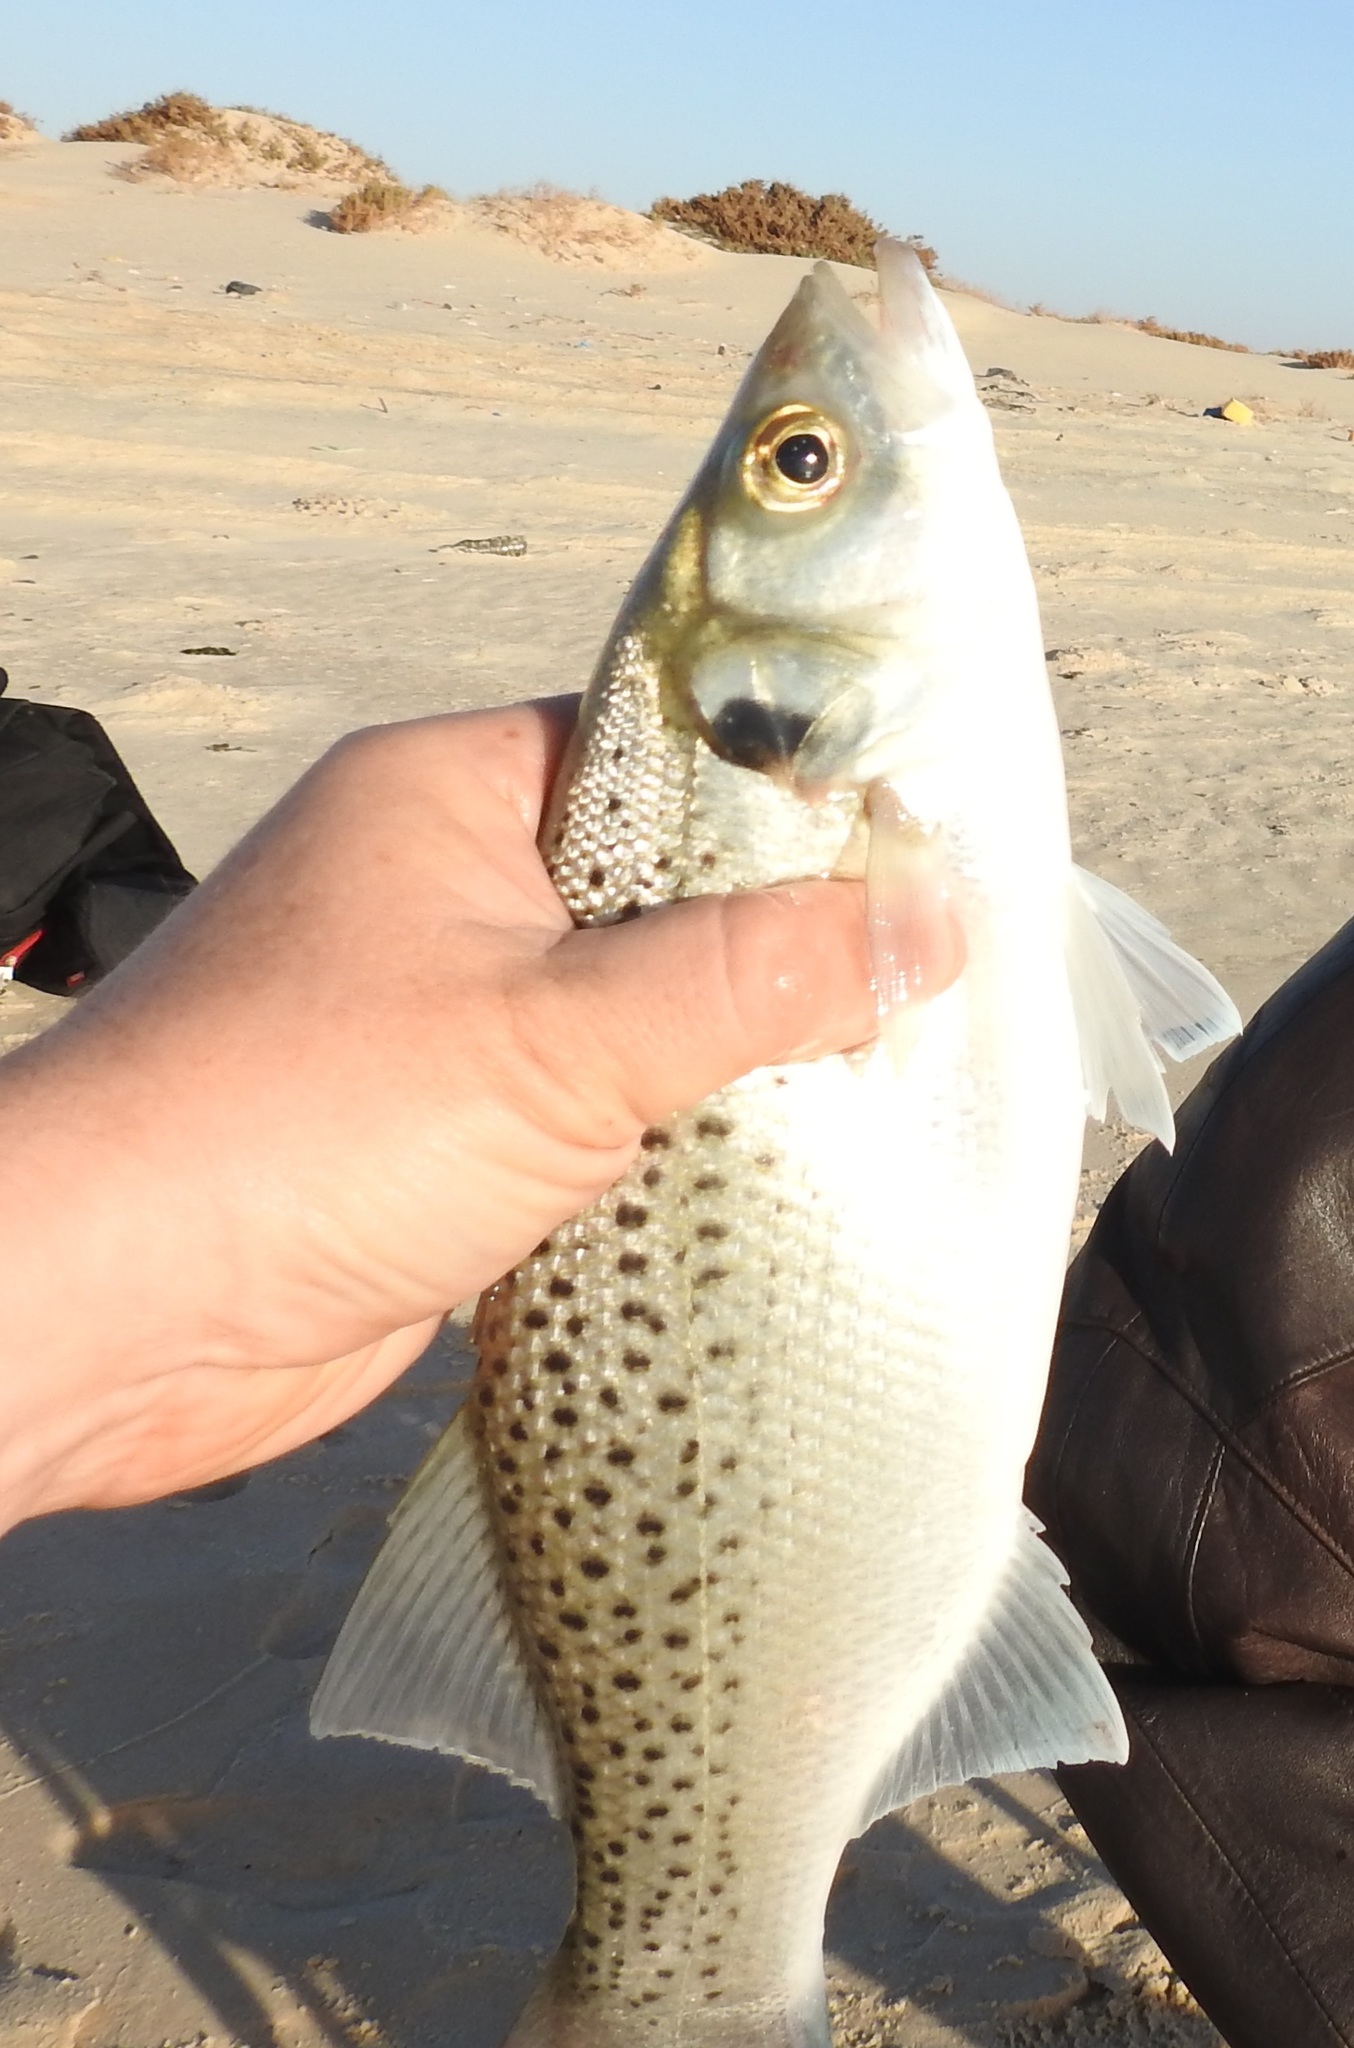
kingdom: Animalia
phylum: Chordata
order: Perciformes
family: Moronidae
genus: Dicentrarchus
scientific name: Dicentrarchus punctatus
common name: Black-spotted bass
